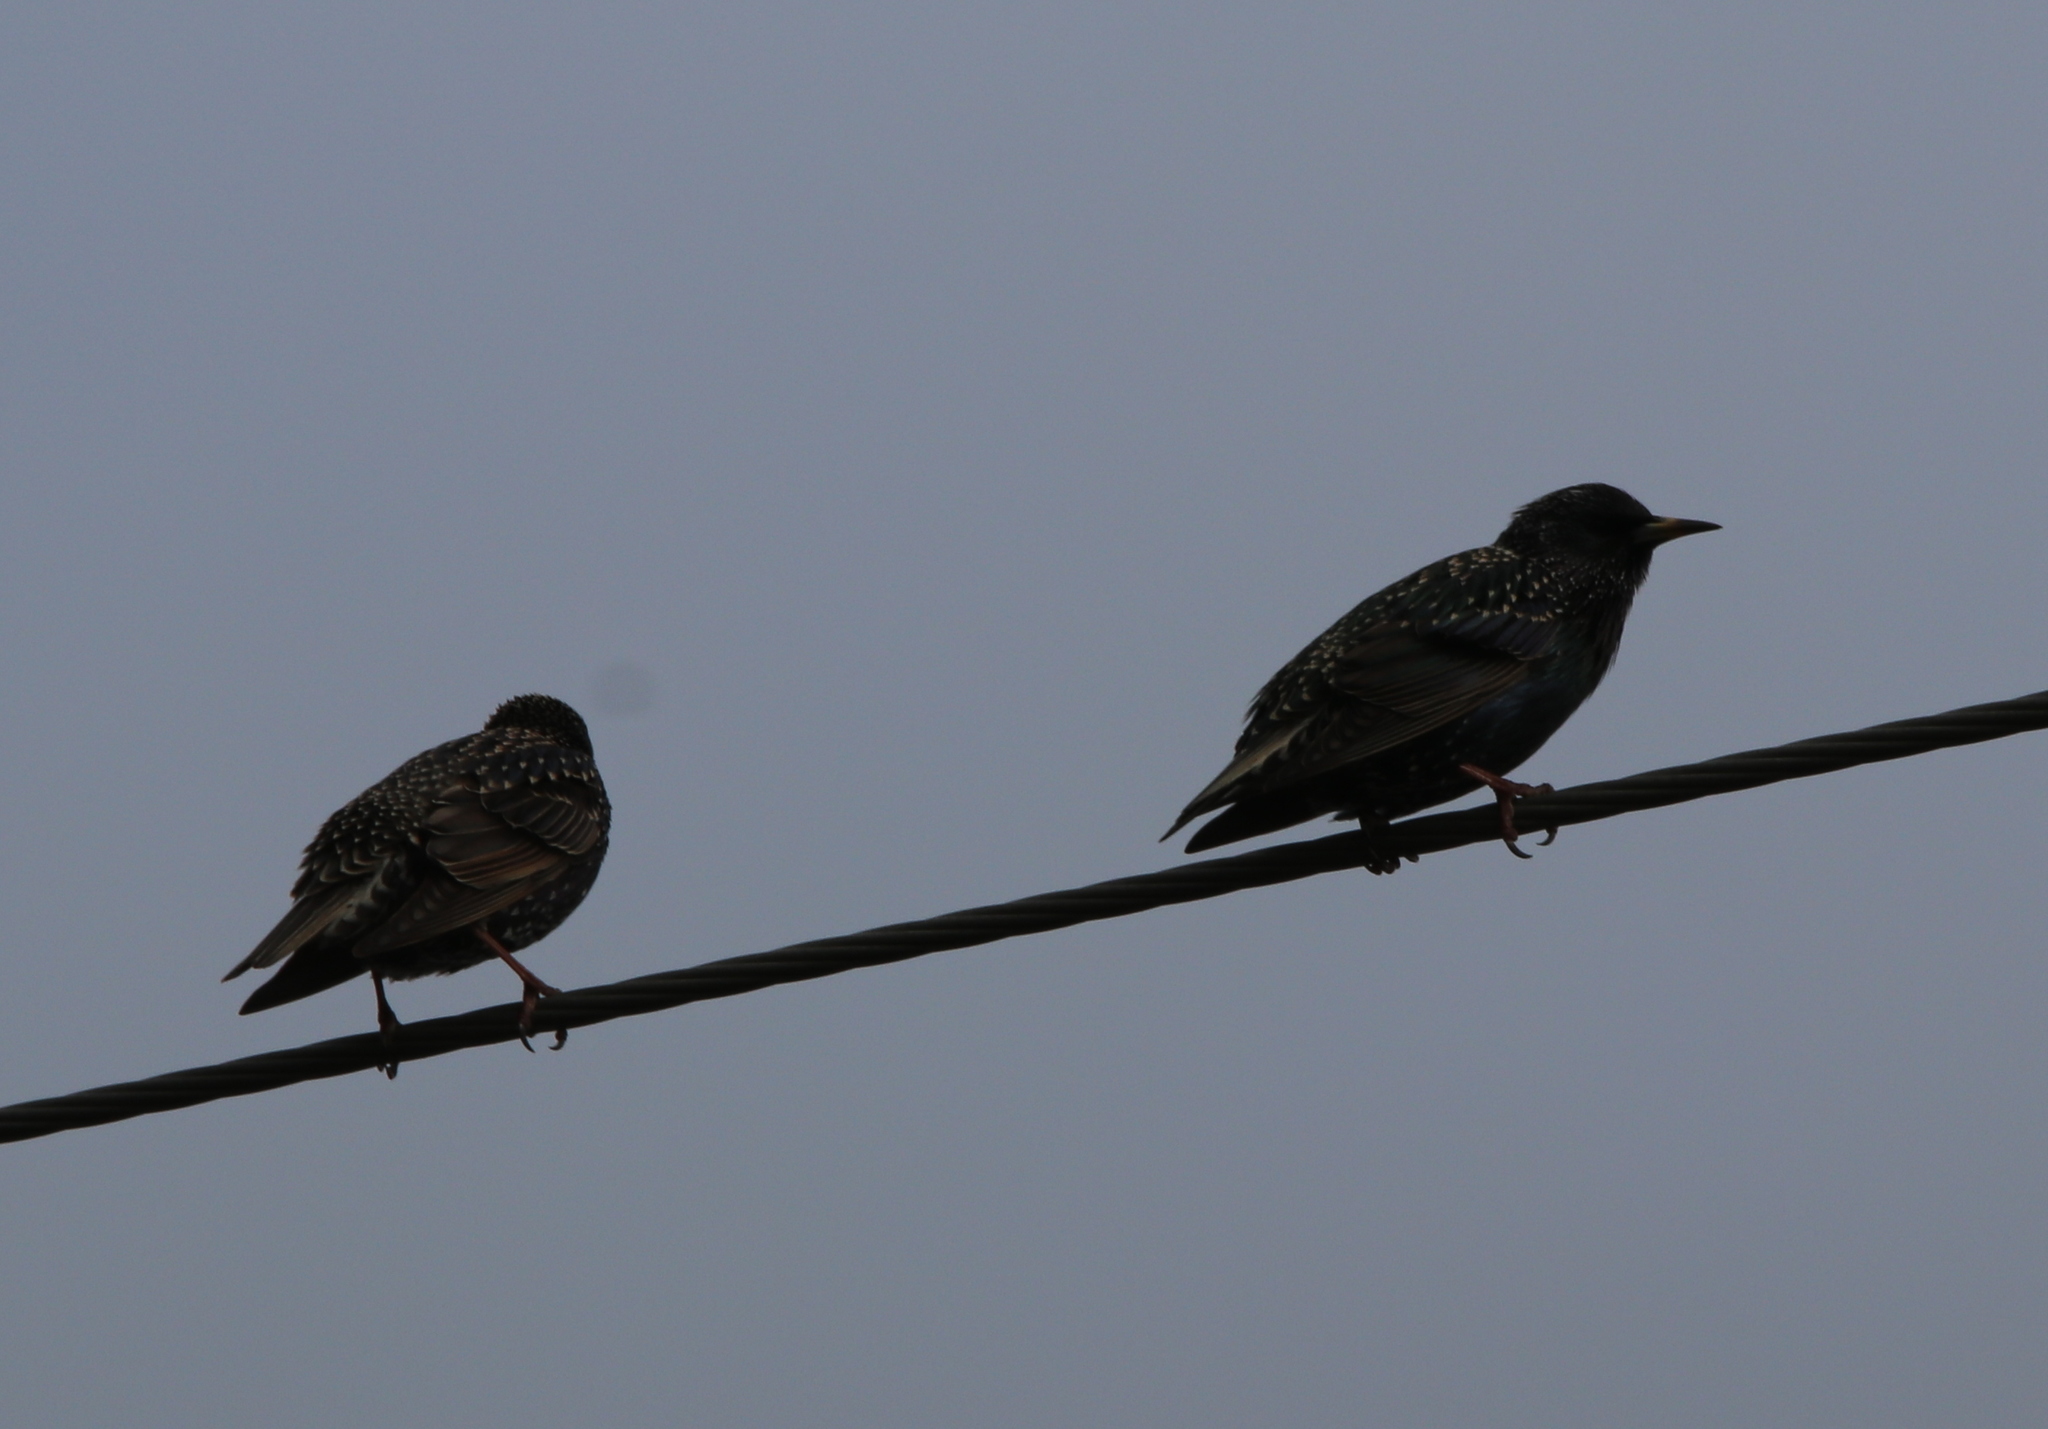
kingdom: Animalia
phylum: Chordata
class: Aves
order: Passeriformes
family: Sturnidae
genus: Sturnus
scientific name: Sturnus vulgaris
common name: Common starling
